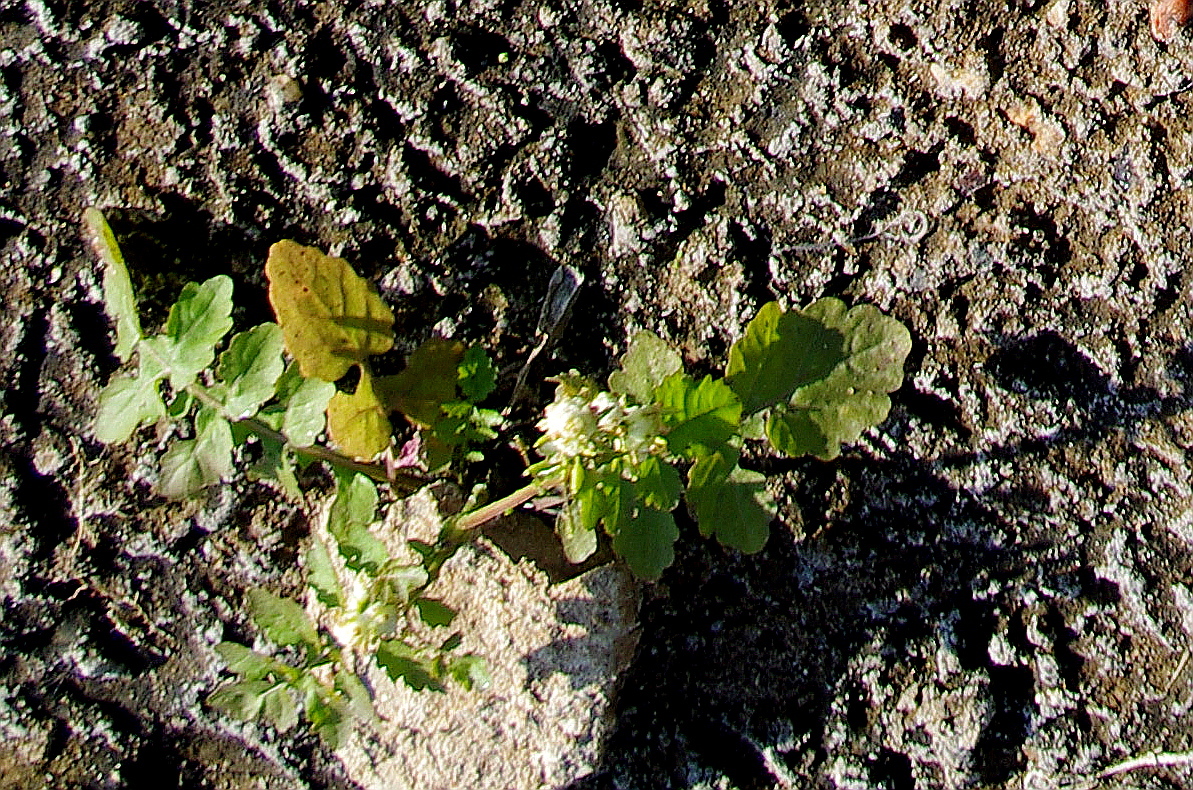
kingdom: Plantae
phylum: Tracheophyta
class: Magnoliopsida
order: Brassicales
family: Brassicaceae
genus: Rorippa
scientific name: Rorippa palustris
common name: Marsh yellow-cress
